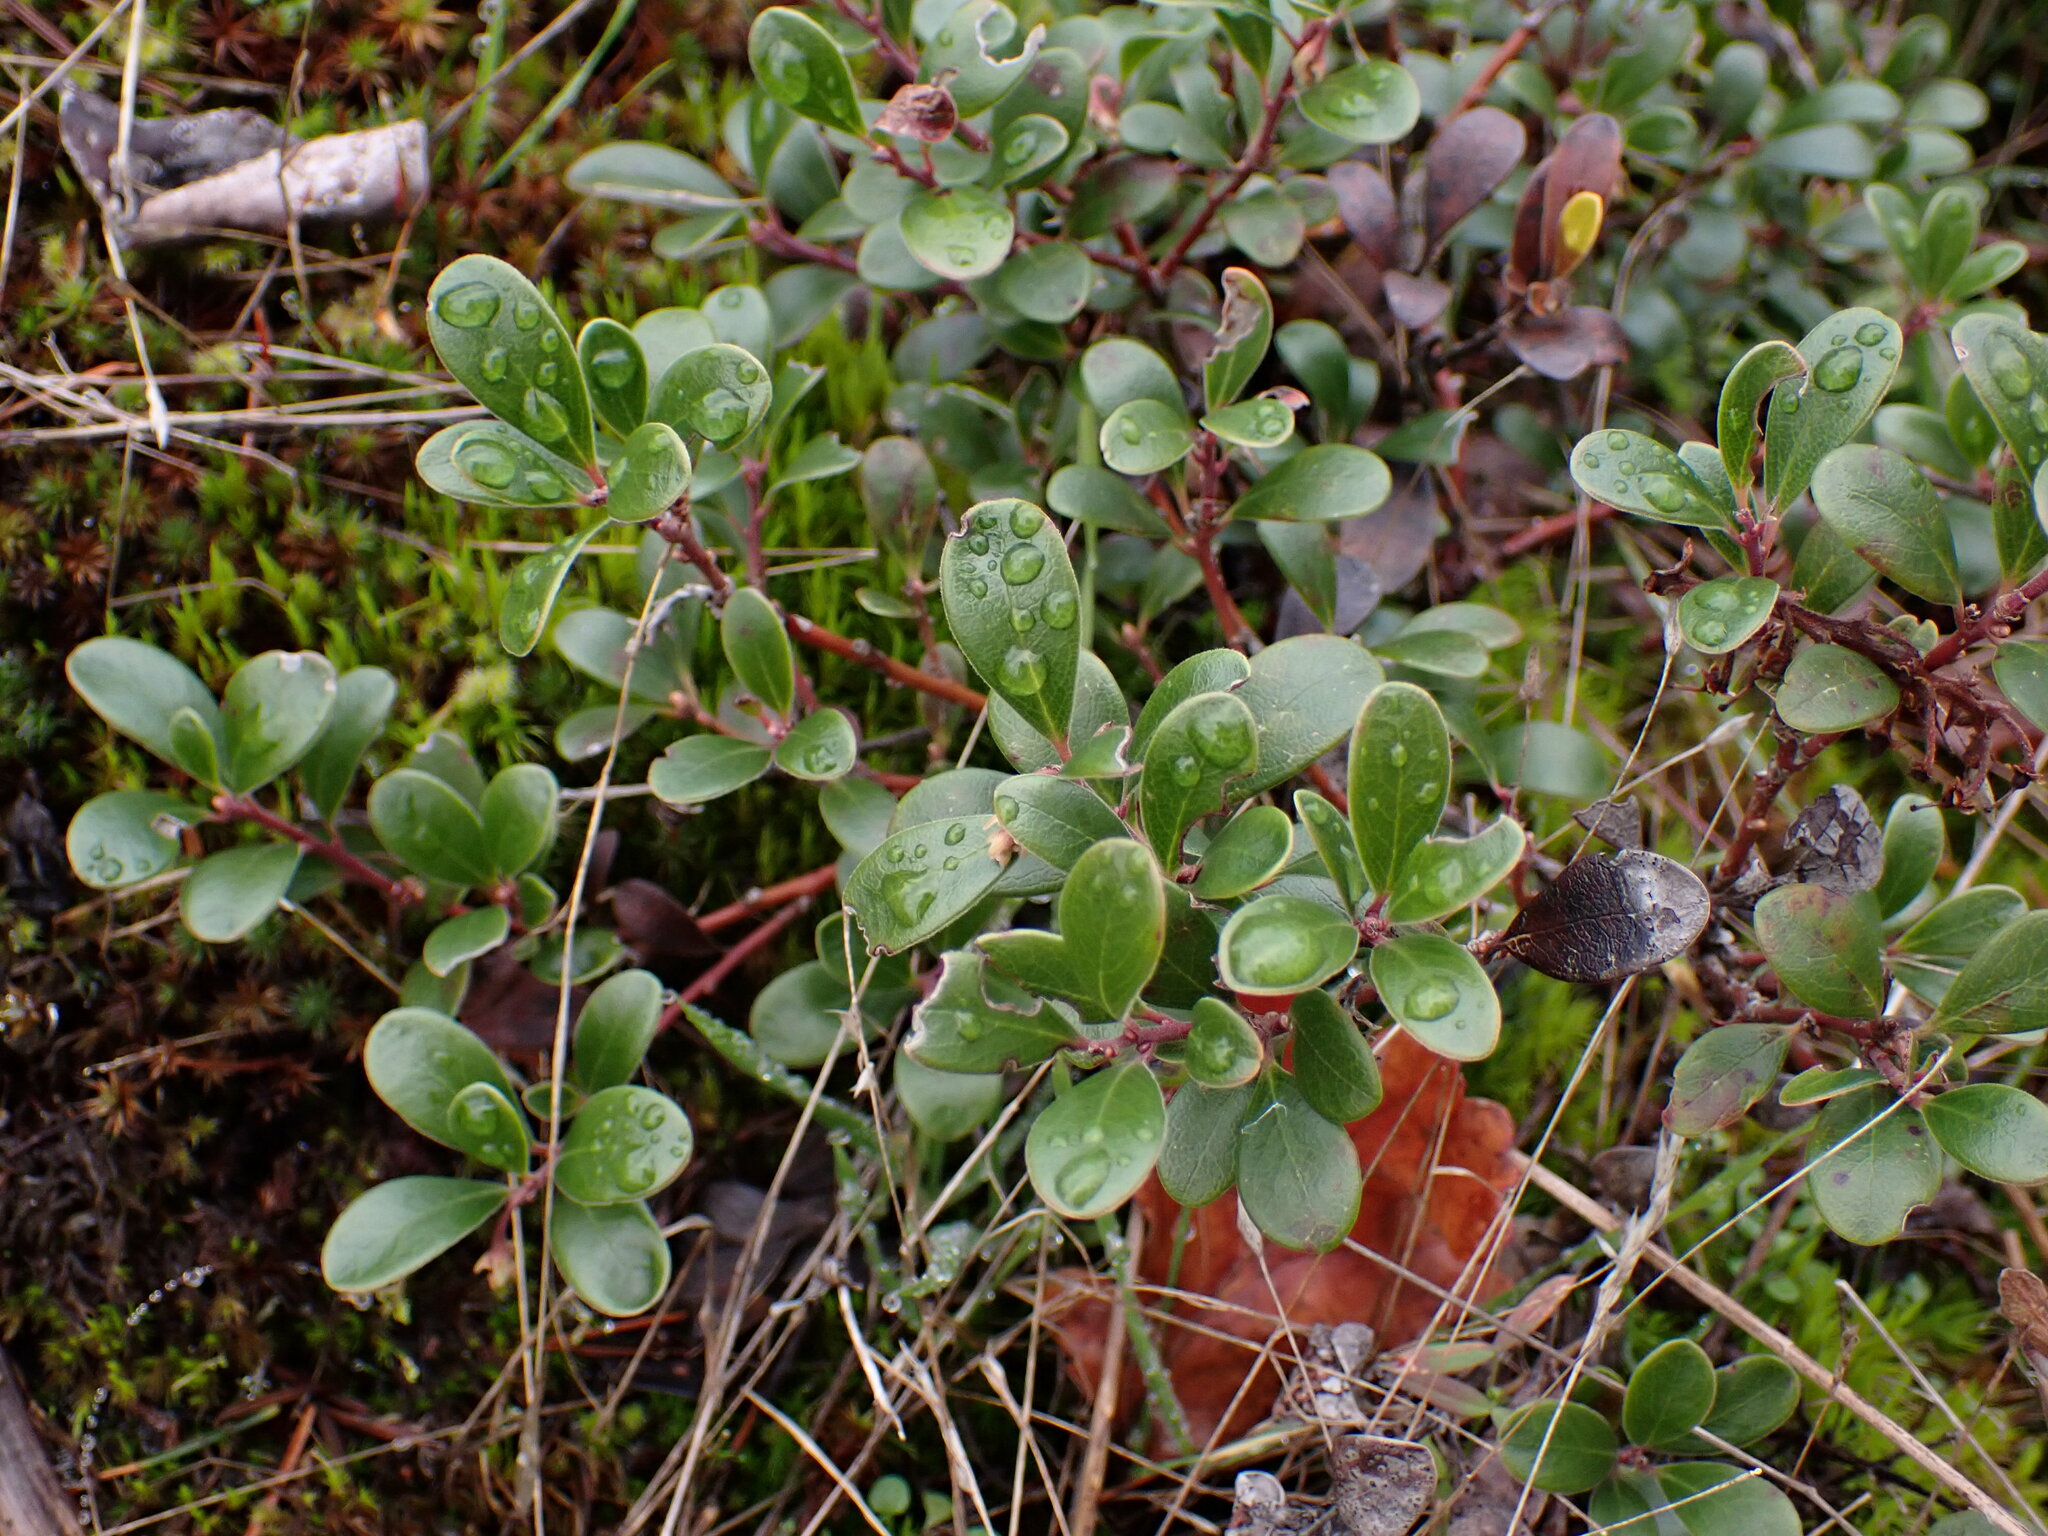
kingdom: Plantae
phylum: Tracheophyta
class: Magnoliopsida
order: Ericales
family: Ericaceae
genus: Arctostaphylos
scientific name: Arctostaphylos uva-ursi
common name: Bearberry
